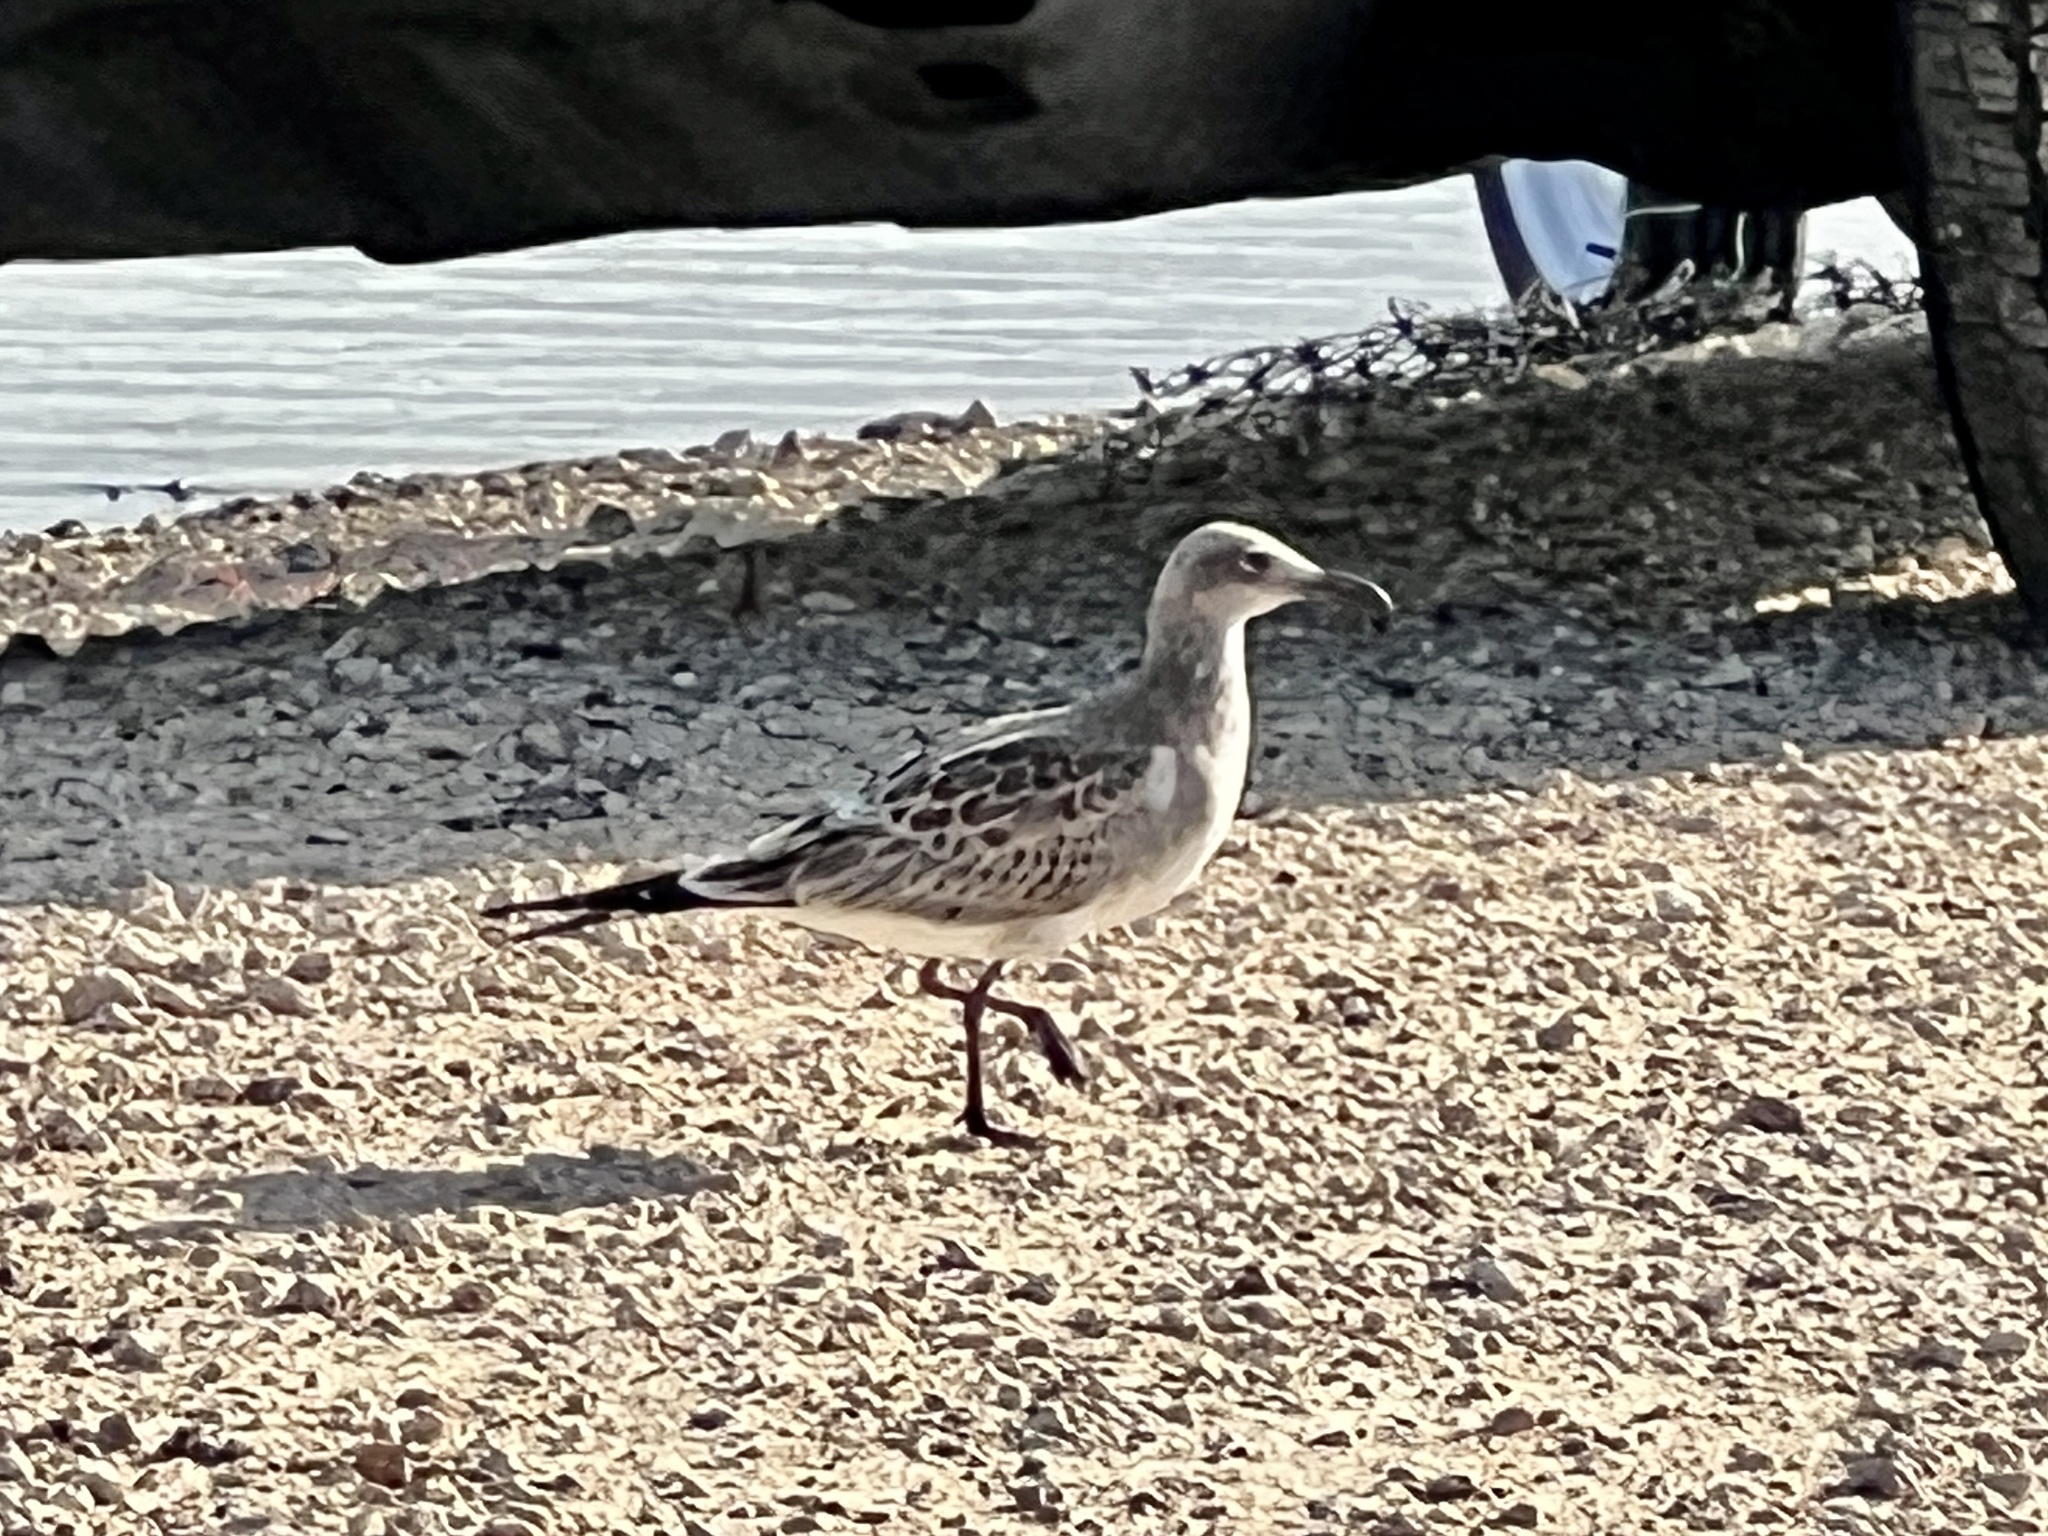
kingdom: Animalia
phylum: Chordata
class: Aves
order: Charadriiformes
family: Laridae
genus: Leucophaeus
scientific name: Leucophaeus atricilla
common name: Laughing gull
